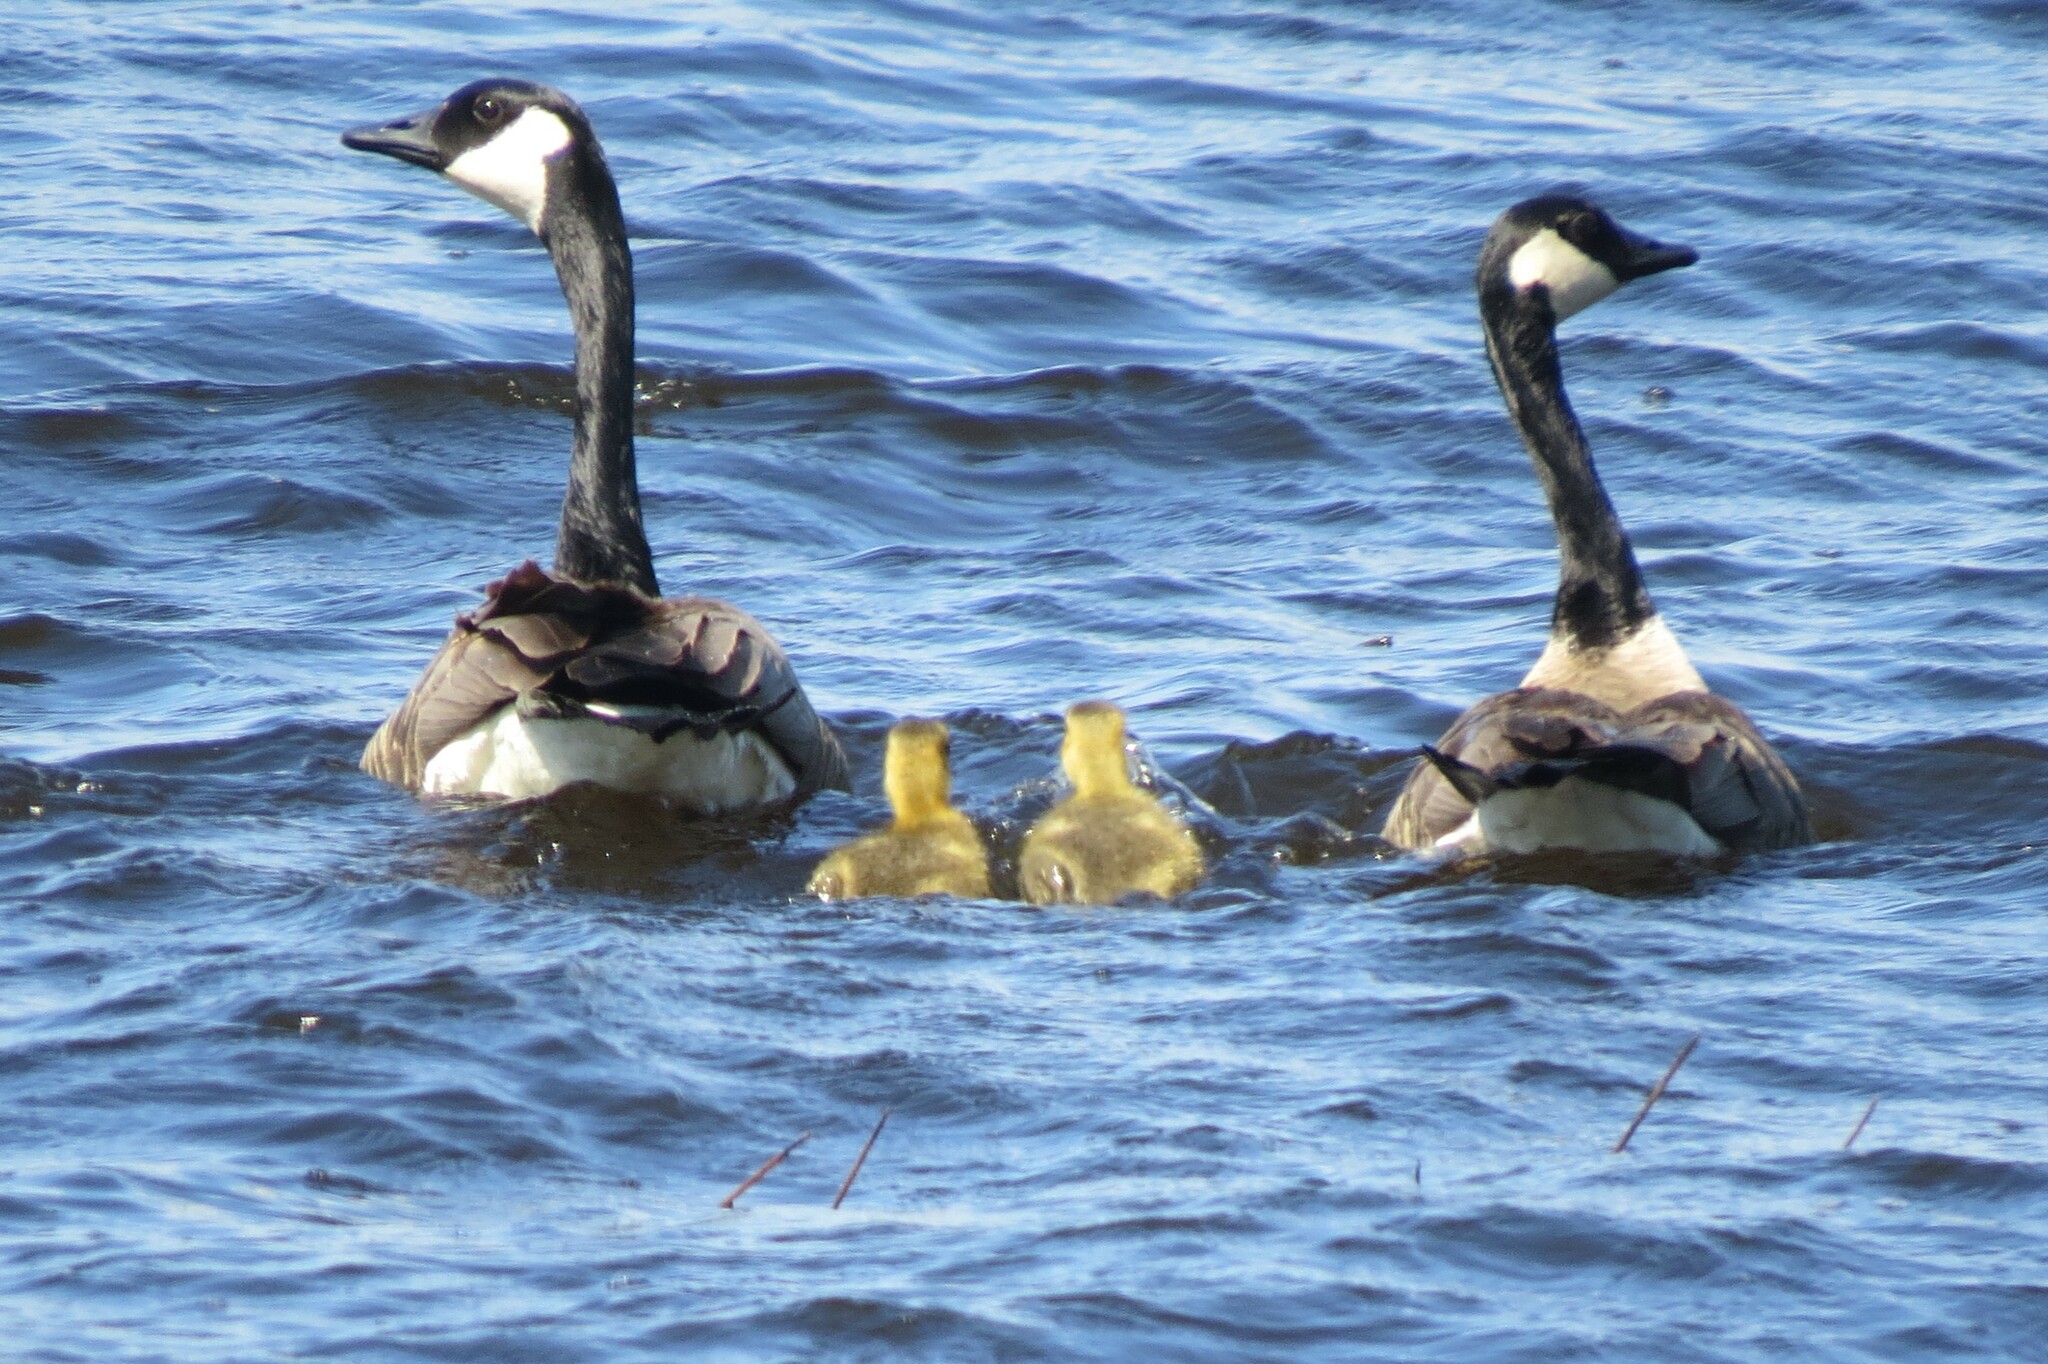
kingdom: Animalia
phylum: Chordata
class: Aves
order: Anseriformes
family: Anatidae
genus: Branta
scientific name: Branta canadensis
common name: Canada goose
